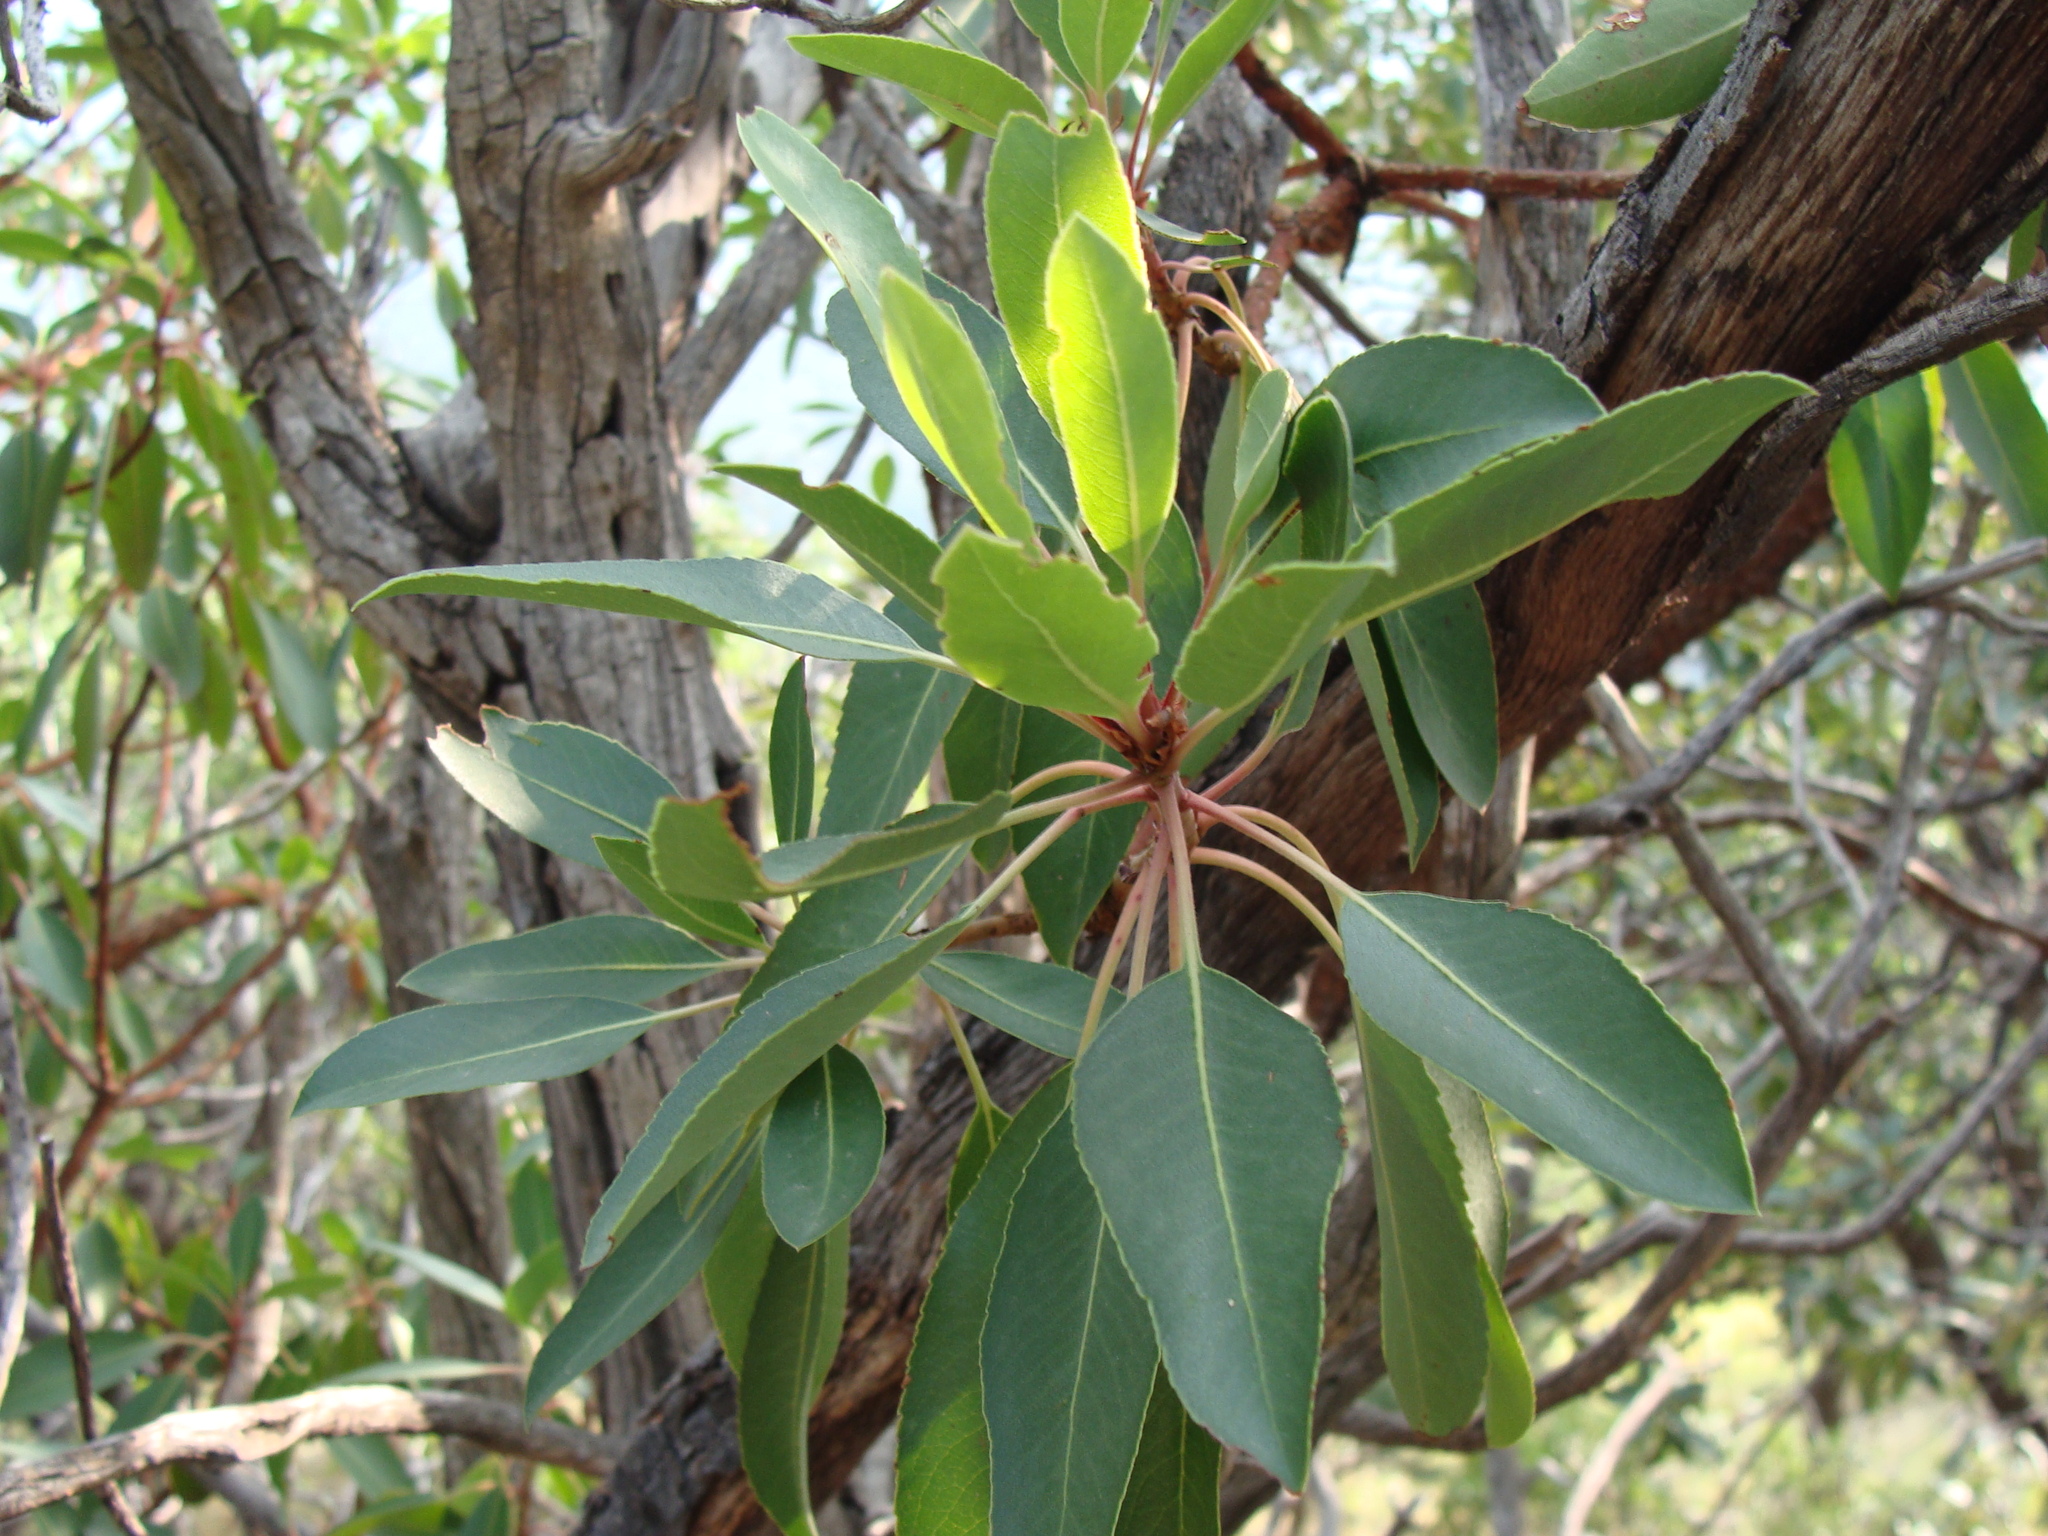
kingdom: Plantae
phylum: Tracheophyta
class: Magnoliopsida
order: Ericales
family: Ericaceae
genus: Arbutus
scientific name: Arbutus arizonica
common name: Arizona madrone
